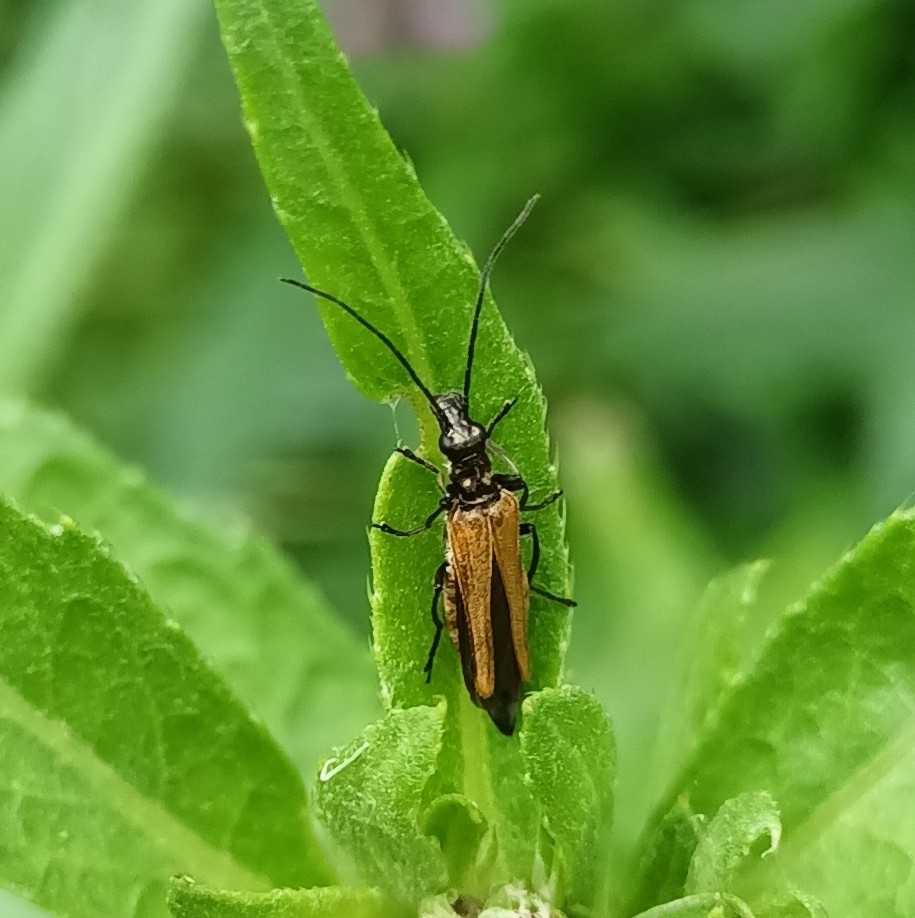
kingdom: Animalia
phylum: Arthropoda
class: Insecta
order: Coleoptera
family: Oedemeridae
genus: Oedemera
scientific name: Oedemera femorata
